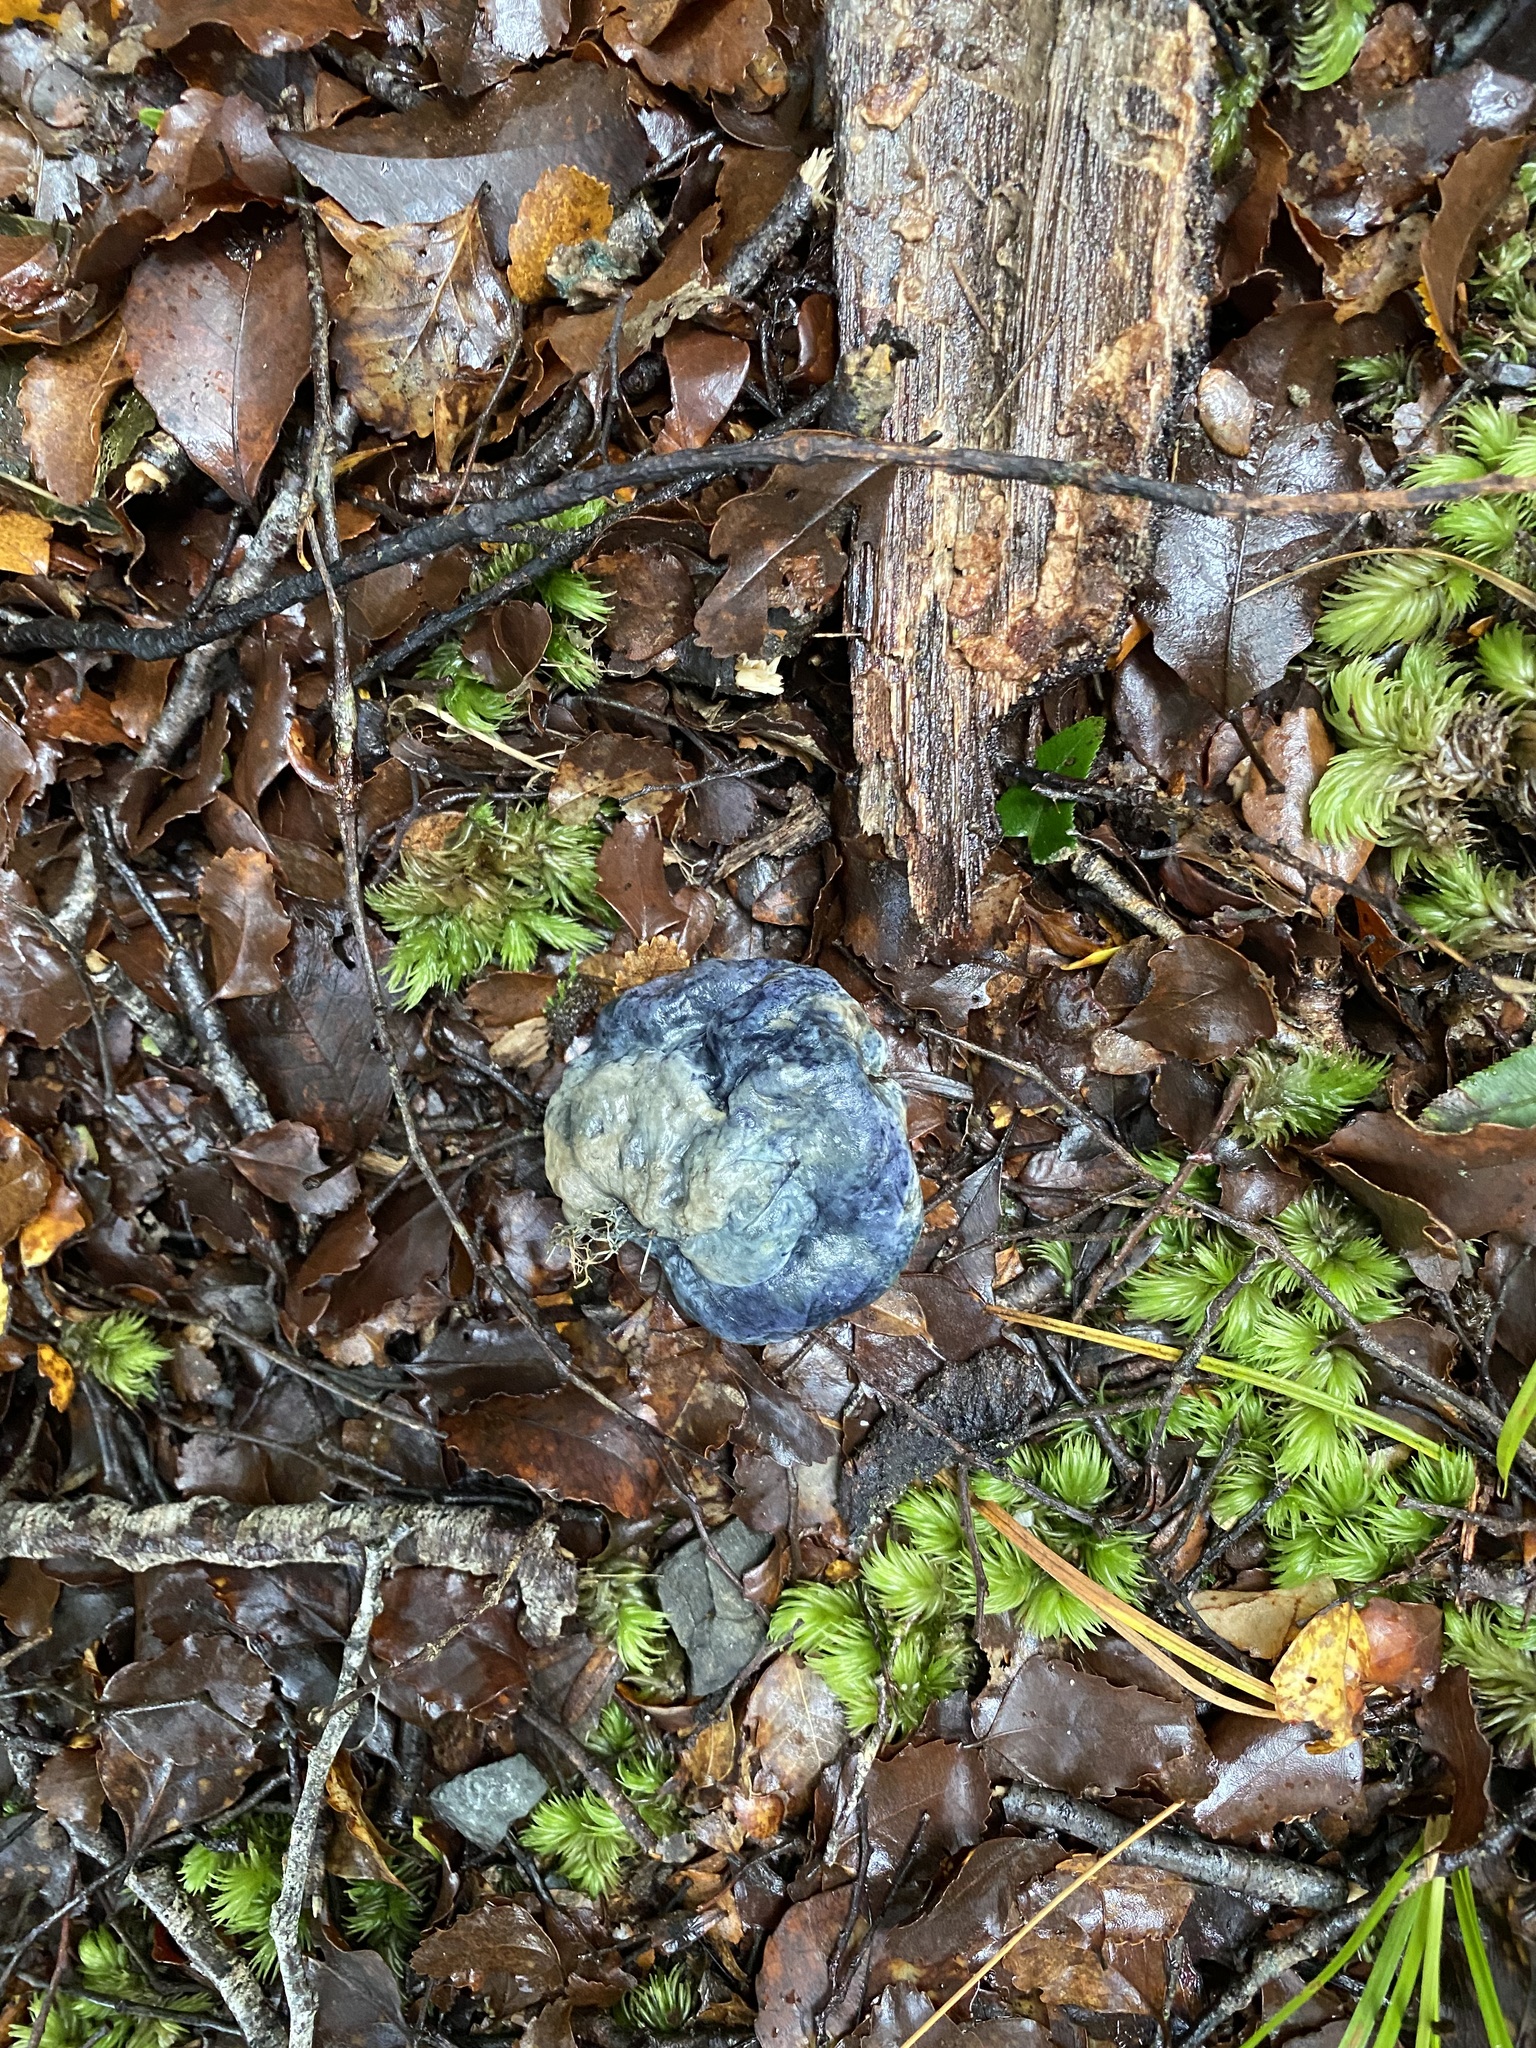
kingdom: Fungi
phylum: Basidiomycota
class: Agaricomycetes
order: Boletales
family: Boletaceae
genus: Leccinum
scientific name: Leccinum pachyderme
